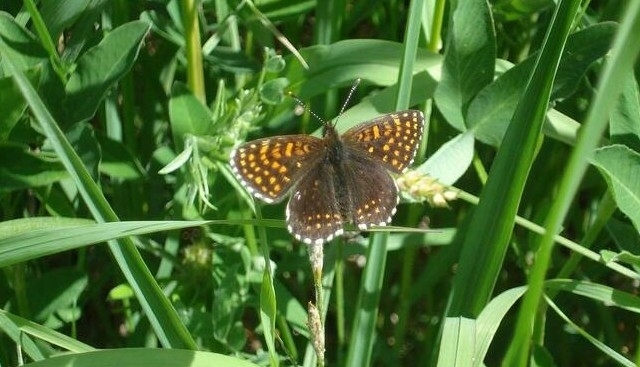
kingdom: Animalia
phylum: Arthropoda
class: Insecta
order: Lepidoptera
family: Nymphalidae
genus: Melitaea
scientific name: Melitaea diamina
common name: False heath fritillary
